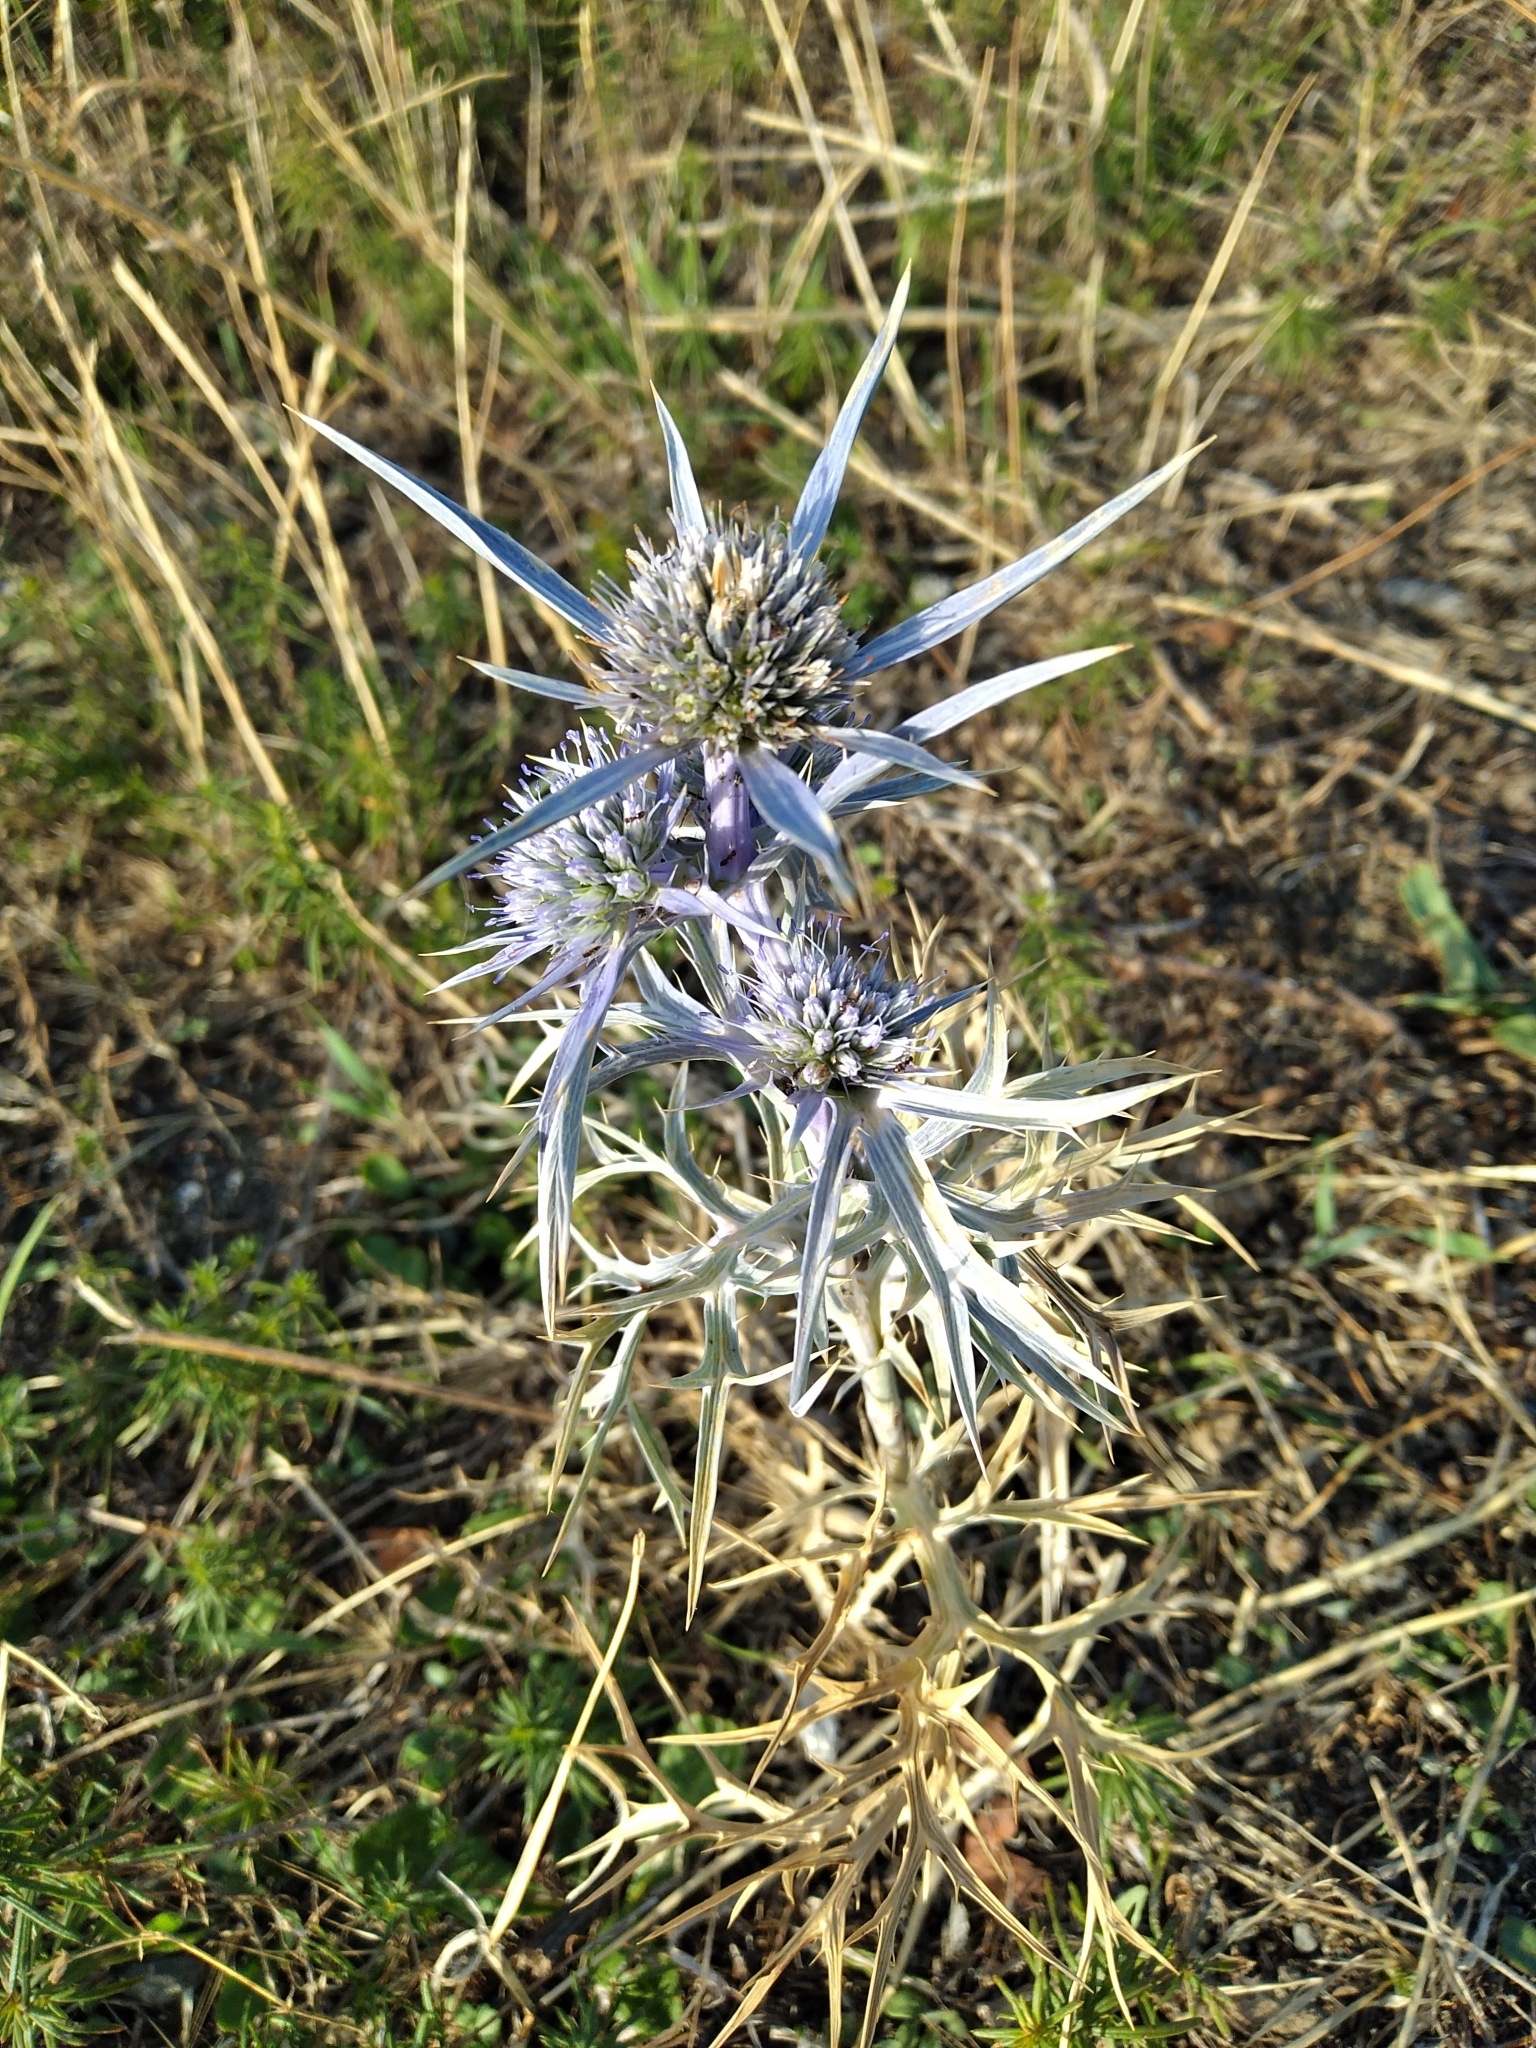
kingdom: Plantae
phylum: Tracheophyta
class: Magnoliopsida
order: Apiales
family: Apiaceae
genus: Eryngium
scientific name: Eryngium amethystinum
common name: Amethyst eryngo
